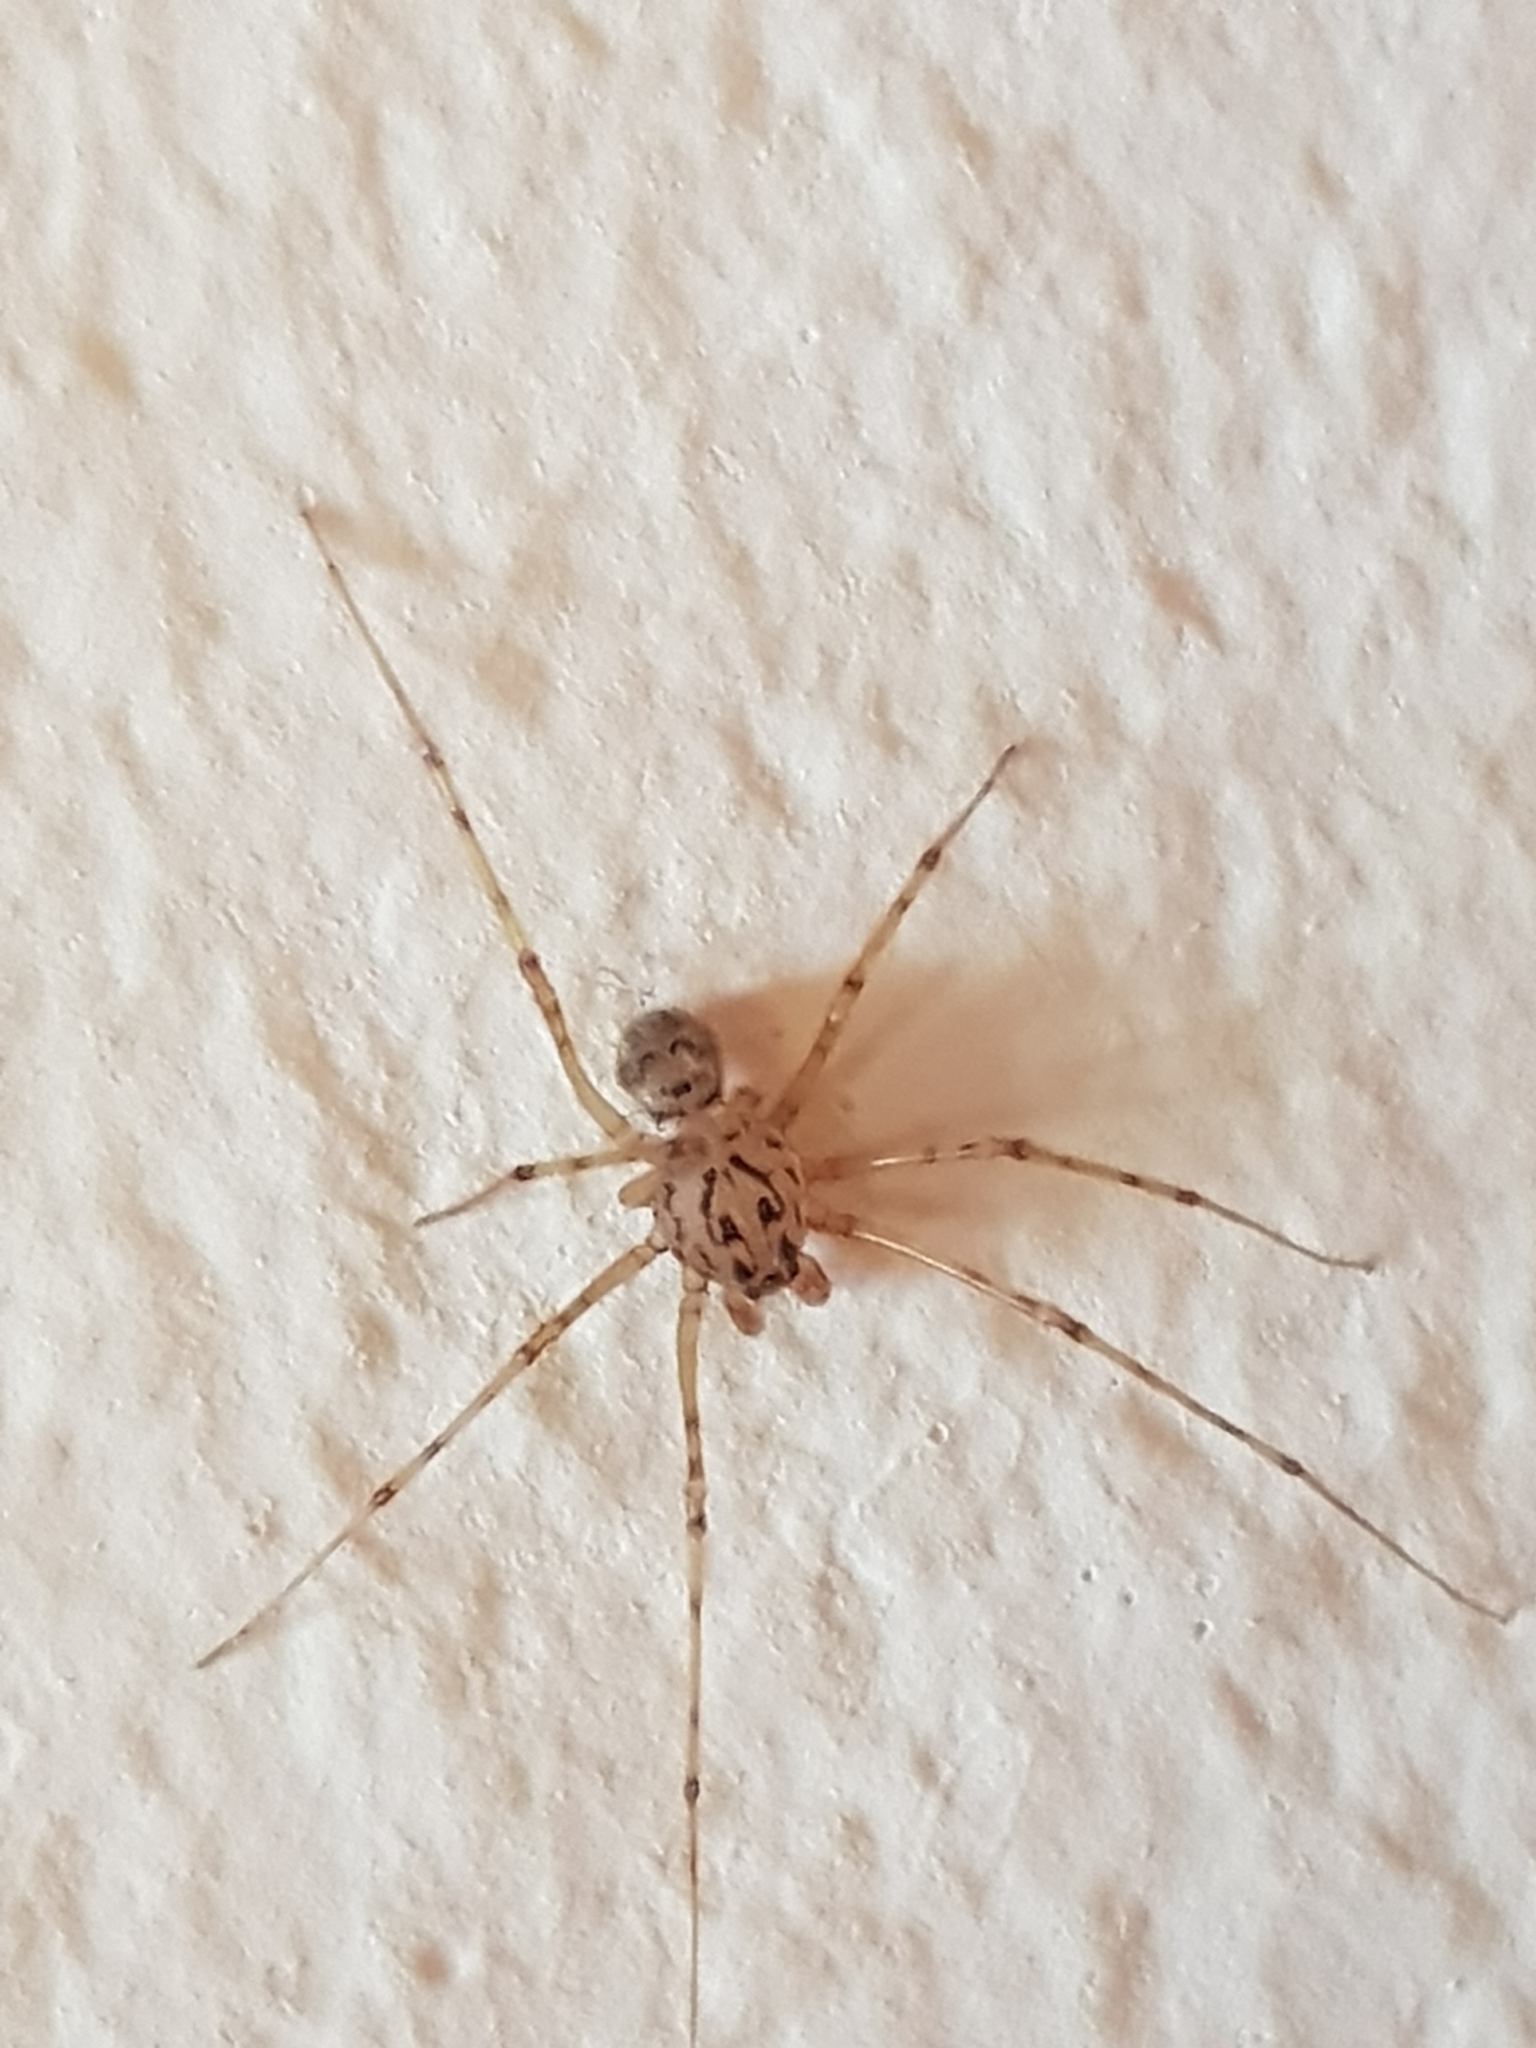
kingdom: Animalia
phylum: Arthropoda
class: Arachnida
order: Araneae
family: Scytodidae
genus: Scytodes
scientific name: Scytodes thoracica
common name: Spitting spider
